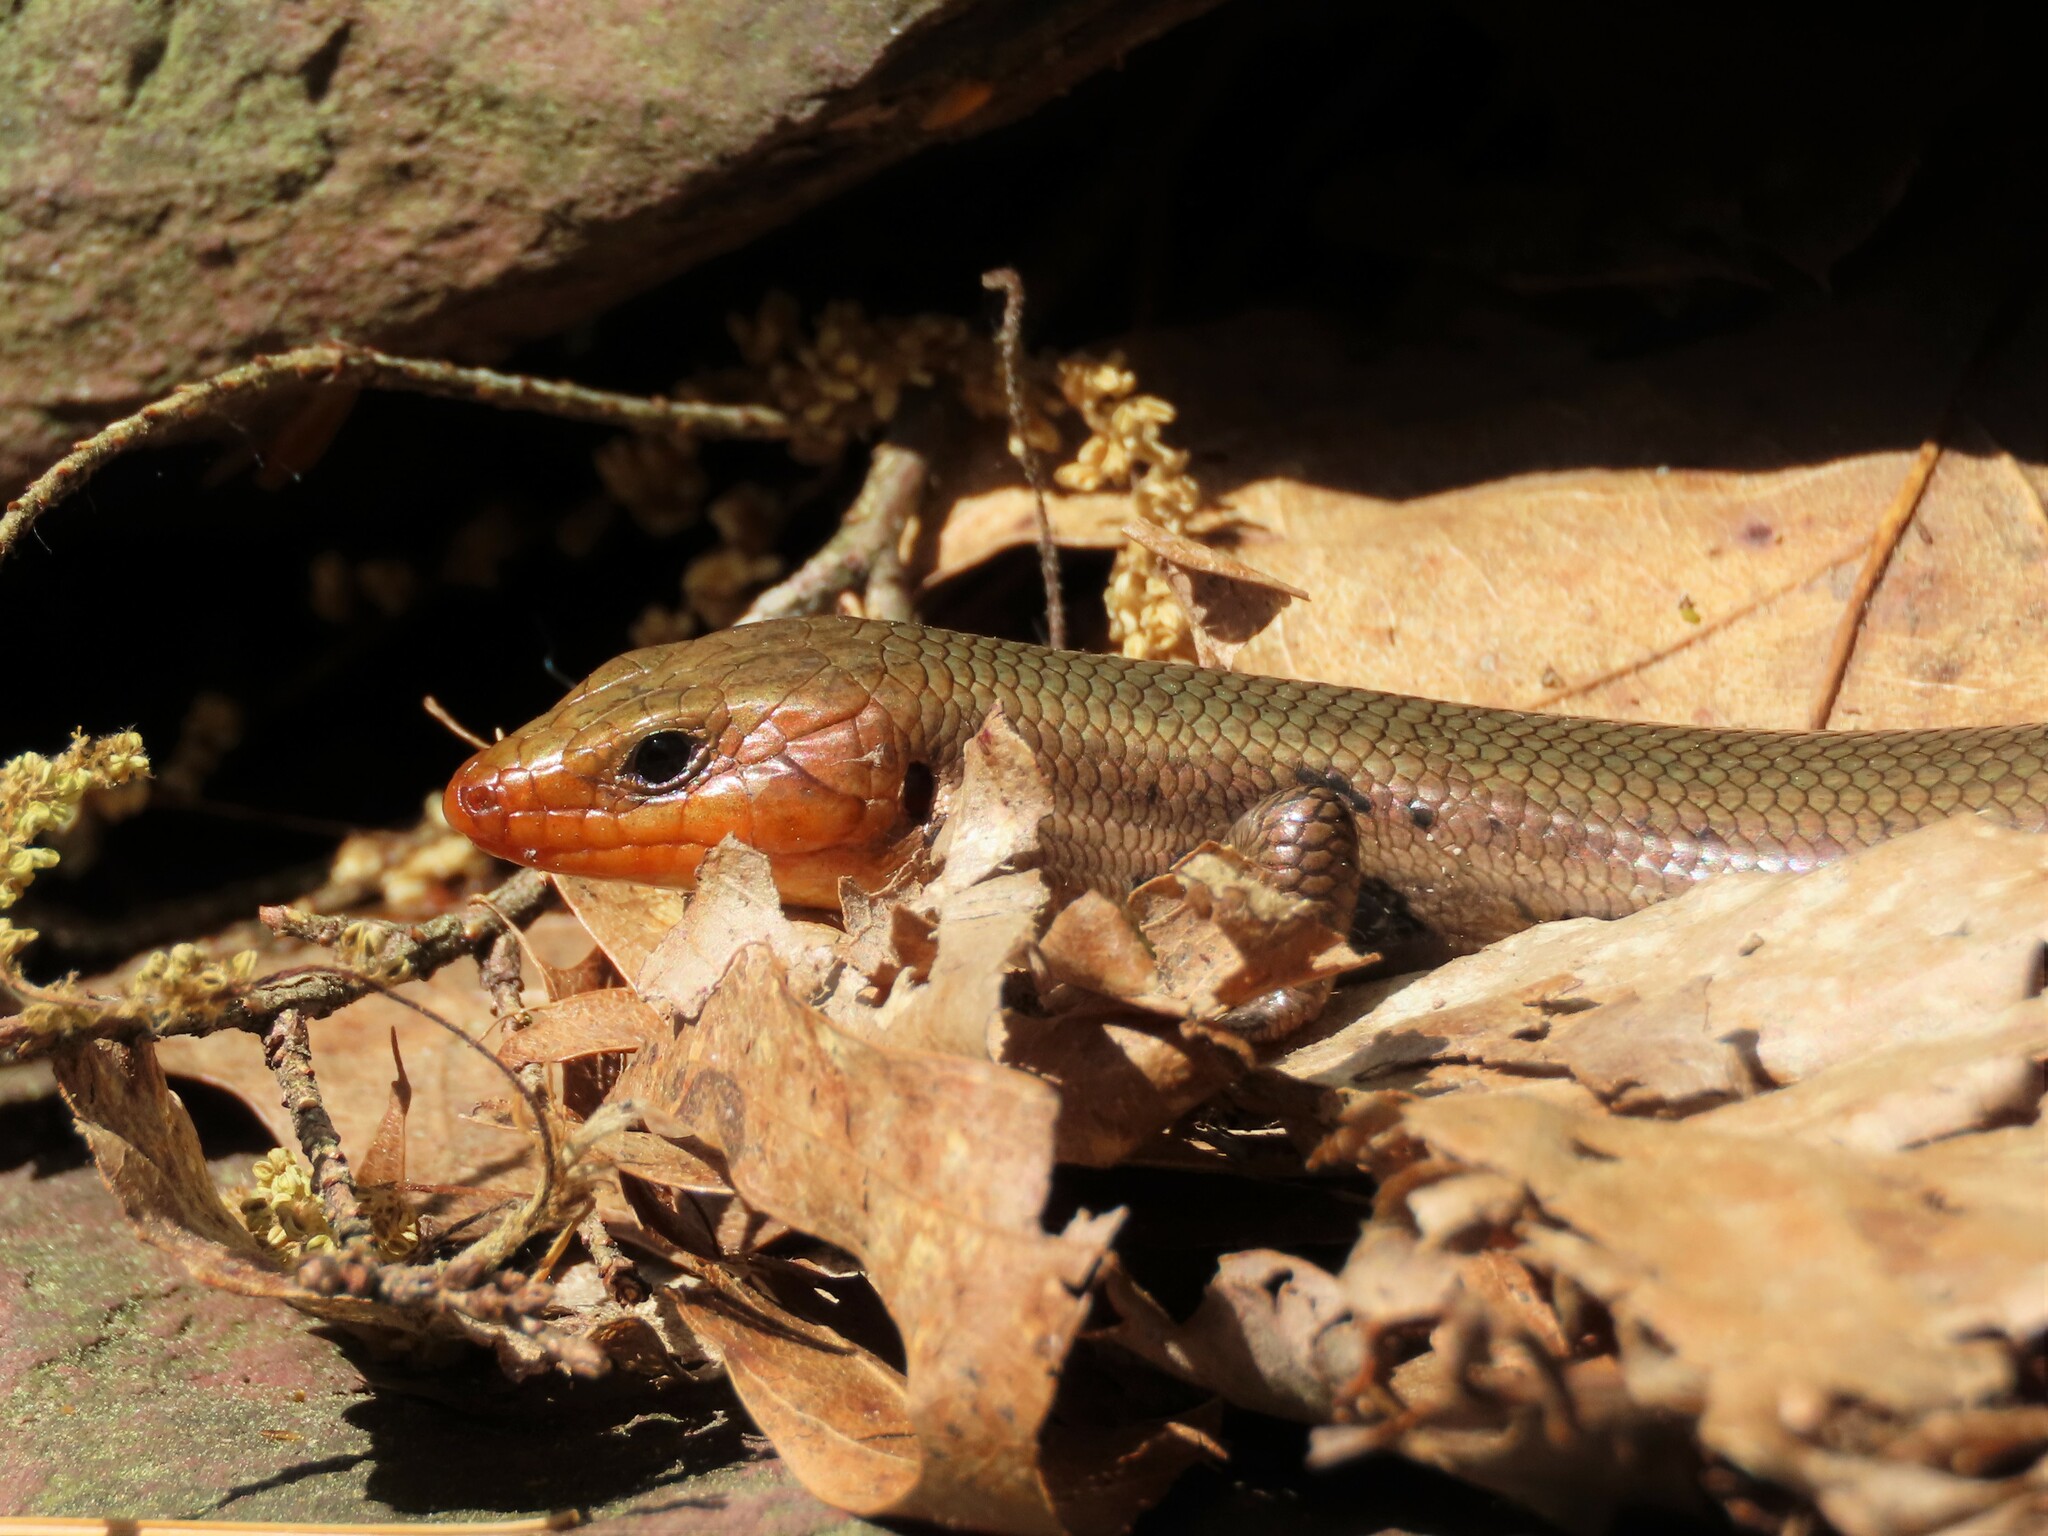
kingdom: Animalia
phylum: Chordata
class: Squamata
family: Scincidae
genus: Plestiodon
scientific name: Plestiodon fasciatus
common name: Five-lined skink
